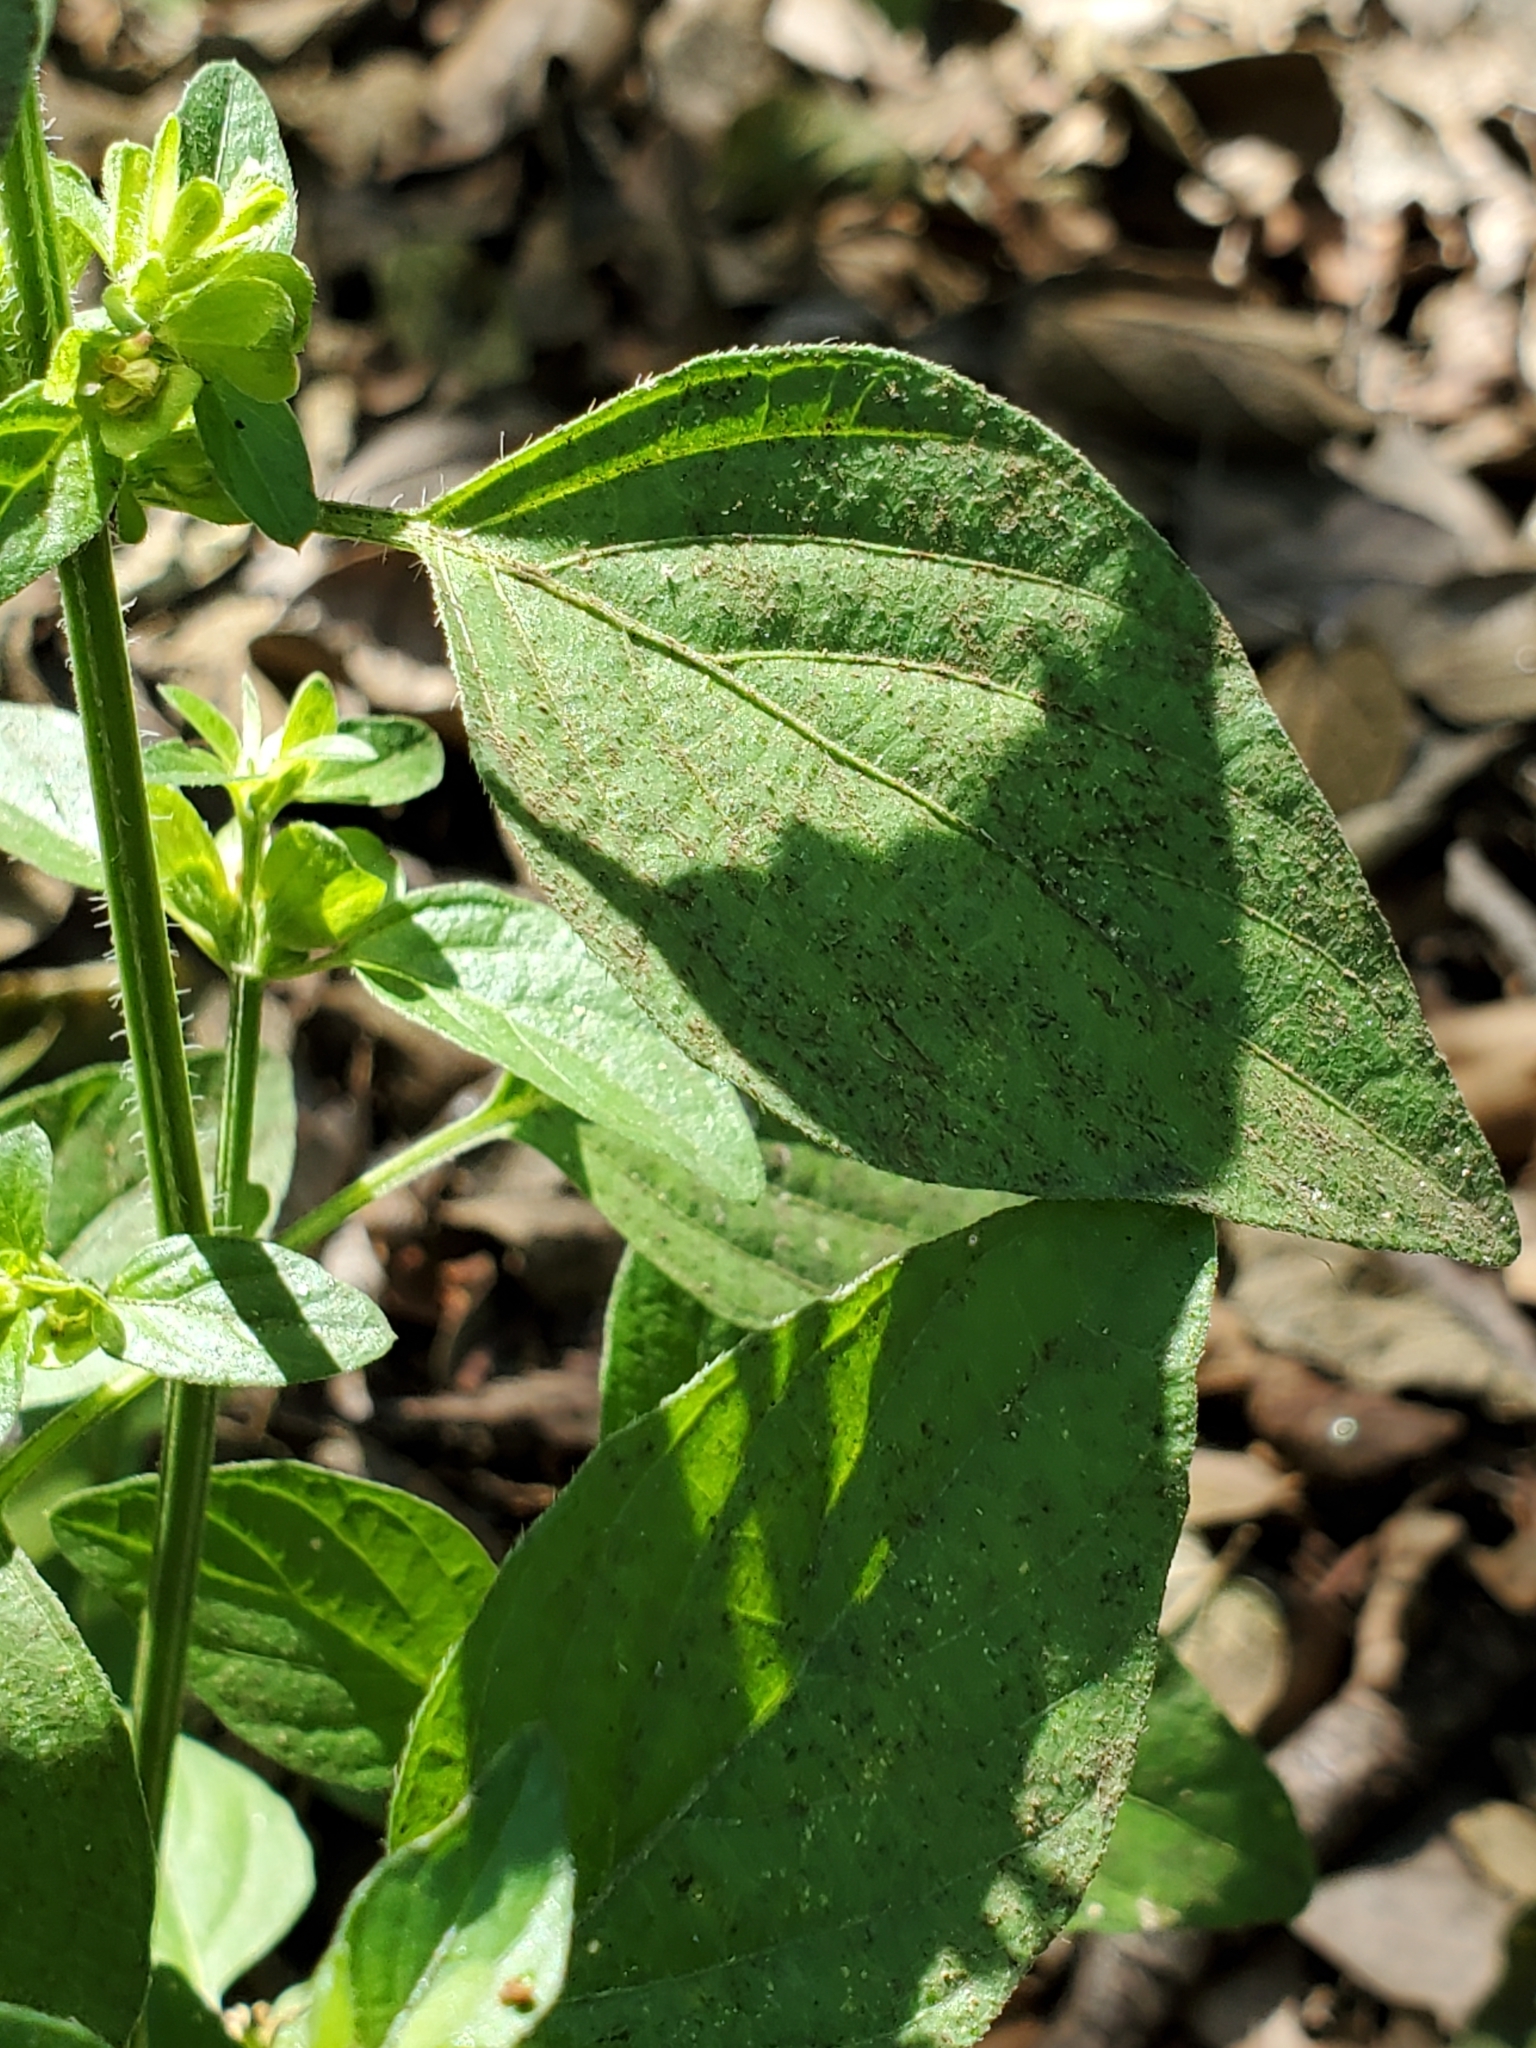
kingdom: Plantae
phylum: Tracheophyta
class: Magnoliopsida
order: Lamiales
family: Acanthaceae
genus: Dicliptera
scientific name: Dicliptera brachiata
